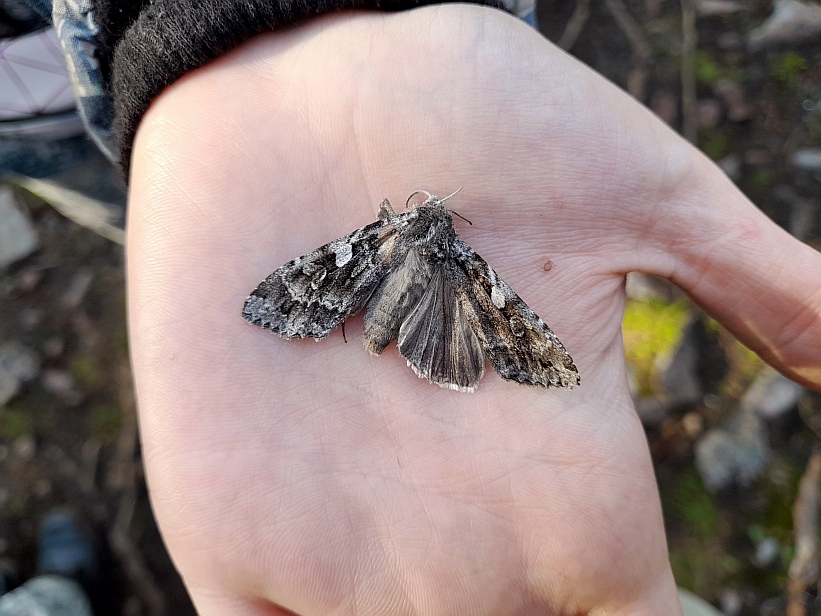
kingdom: Animalia
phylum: Arthropoda
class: Insecta
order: Lepidoptera
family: Noctuidae
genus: Eurois
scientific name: Eurois occulta
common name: Great brocade
